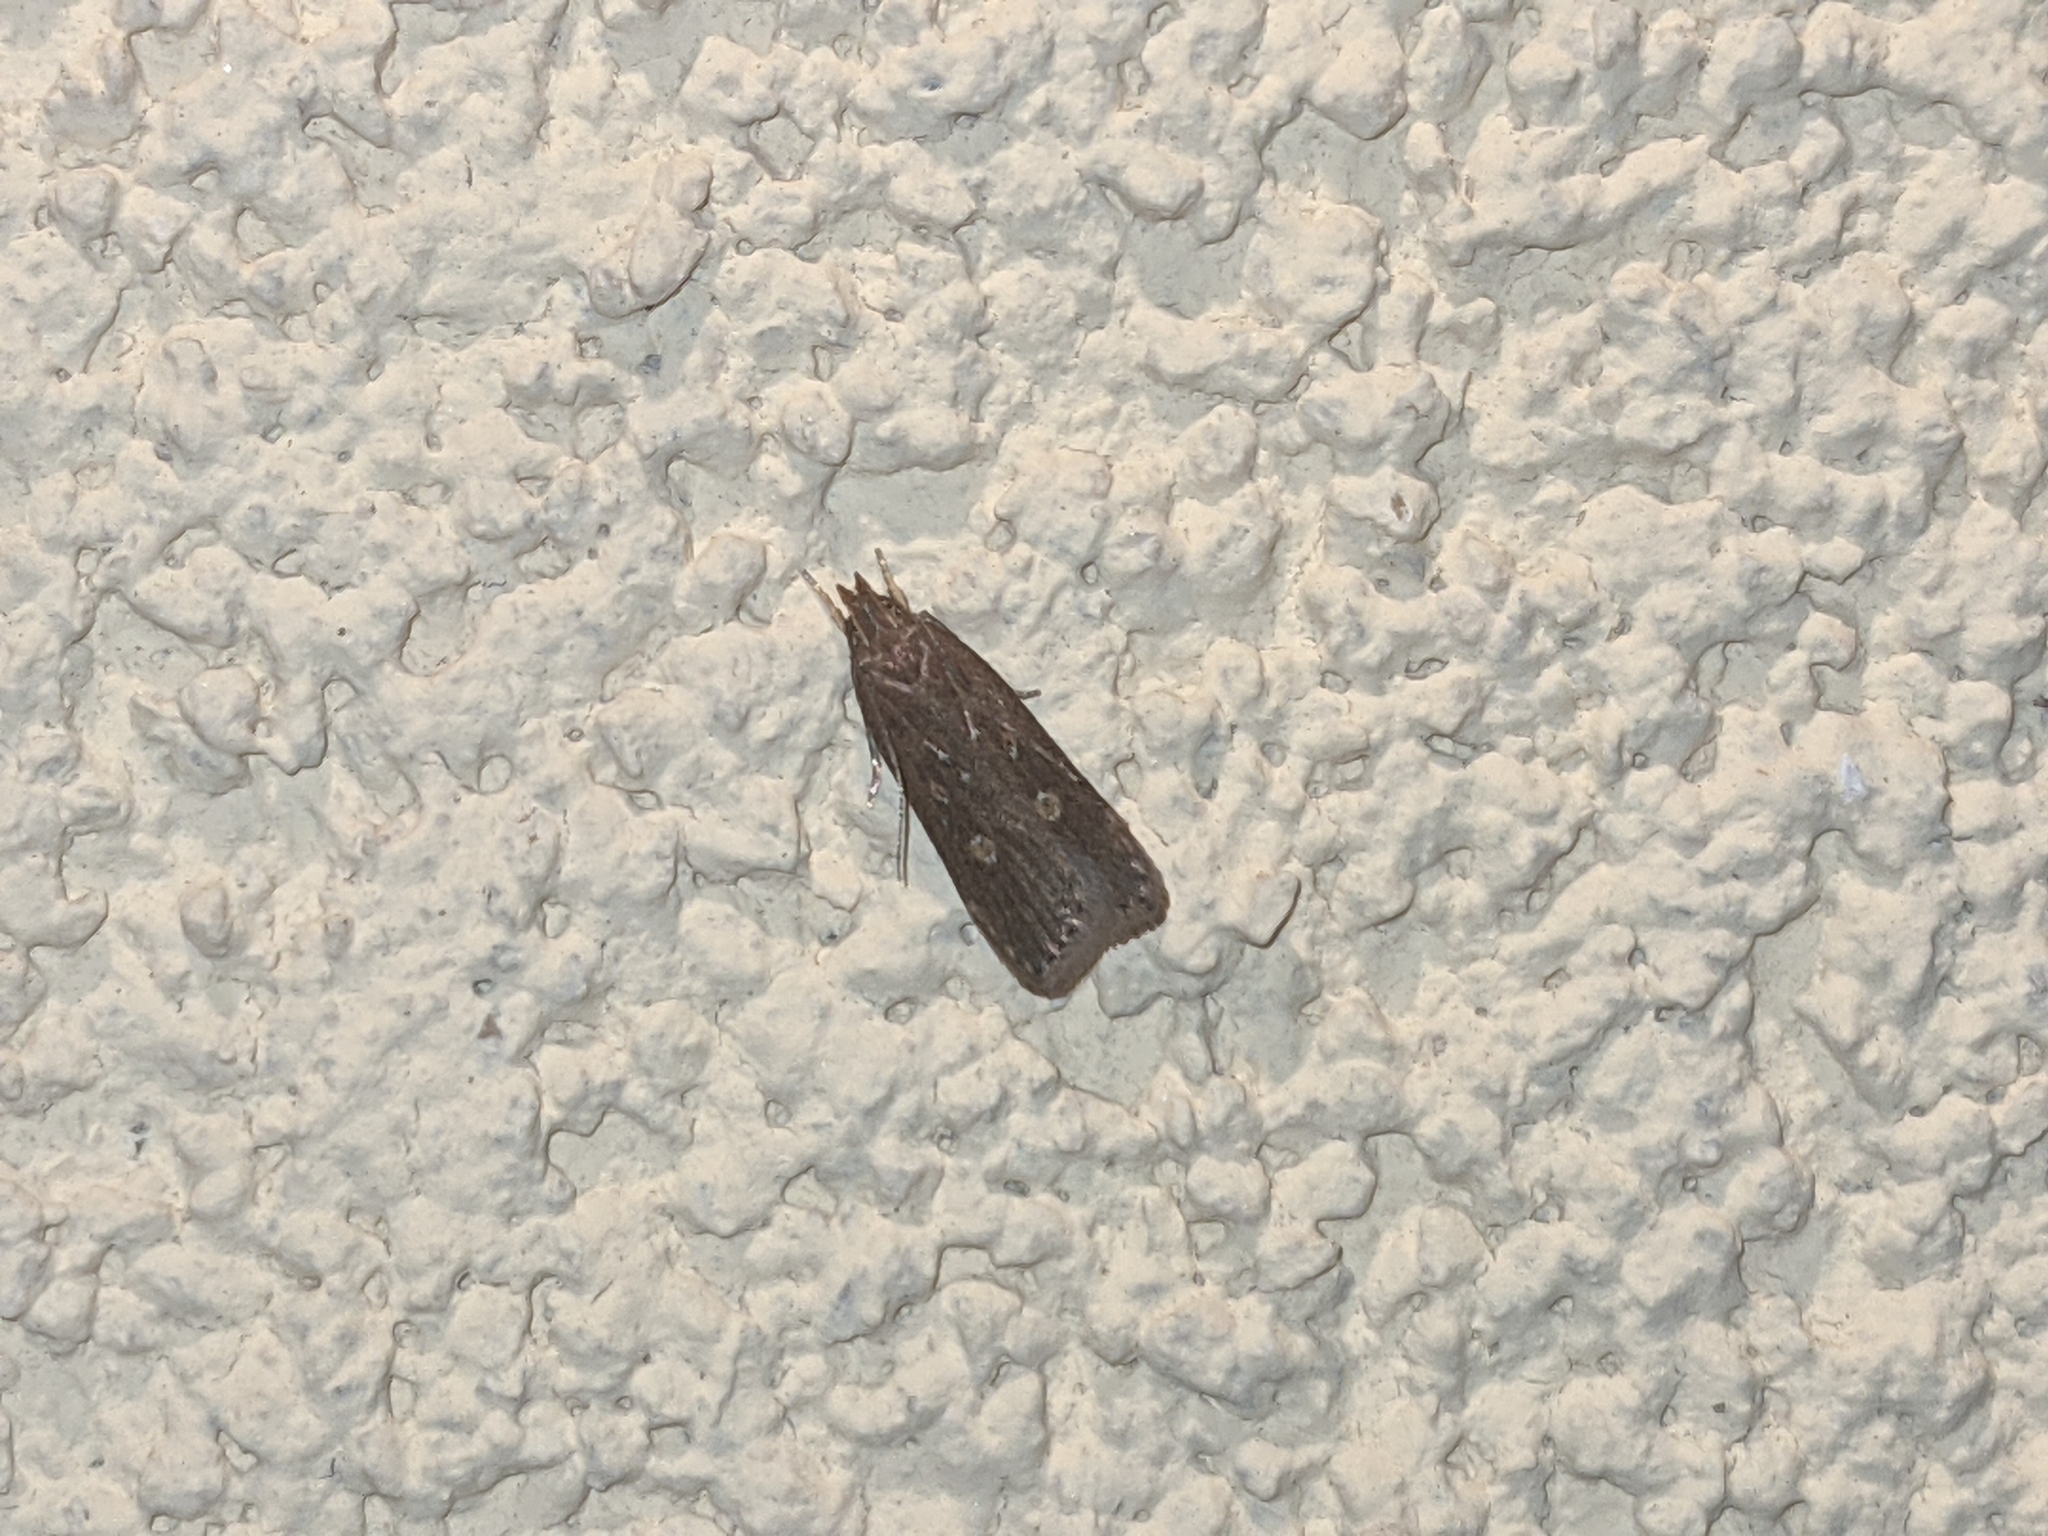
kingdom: Animalia
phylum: Arthropoda
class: Insecta
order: Lepidoptera
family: Gelechiidae
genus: Helcystogramma
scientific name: Helcystogramma triannulella
